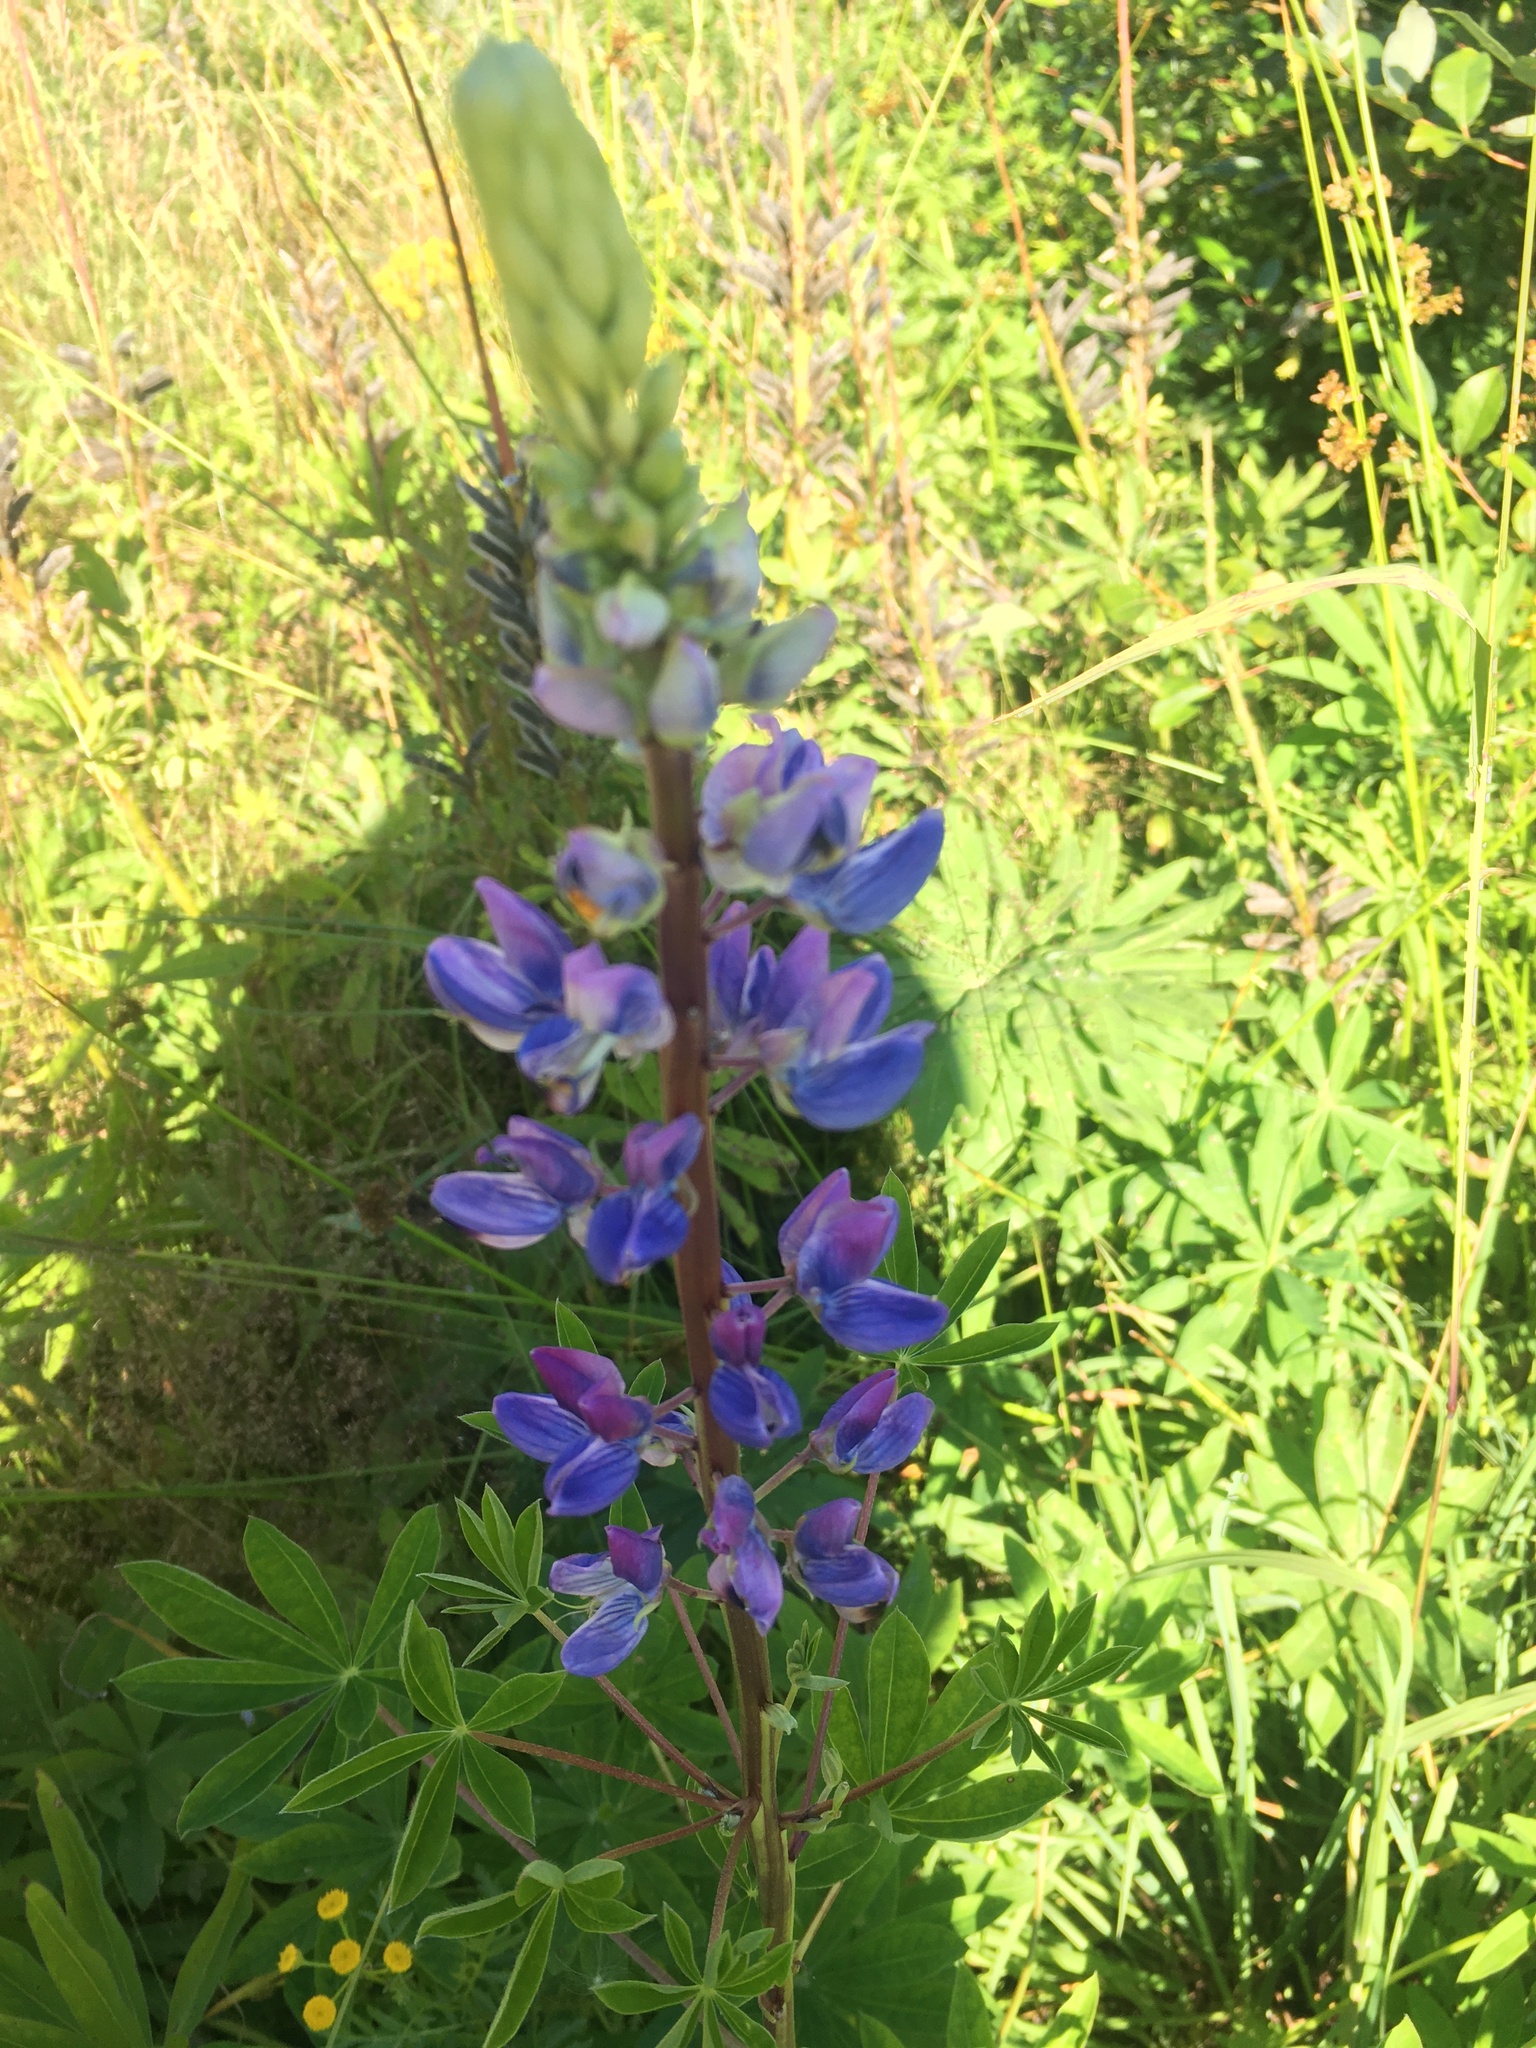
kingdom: Plantae
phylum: Tracheophyta
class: Magnoliopsida
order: Fabales
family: Fabaceae
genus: Lupinus
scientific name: Lupinus polyphyllus
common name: Garden lupin
